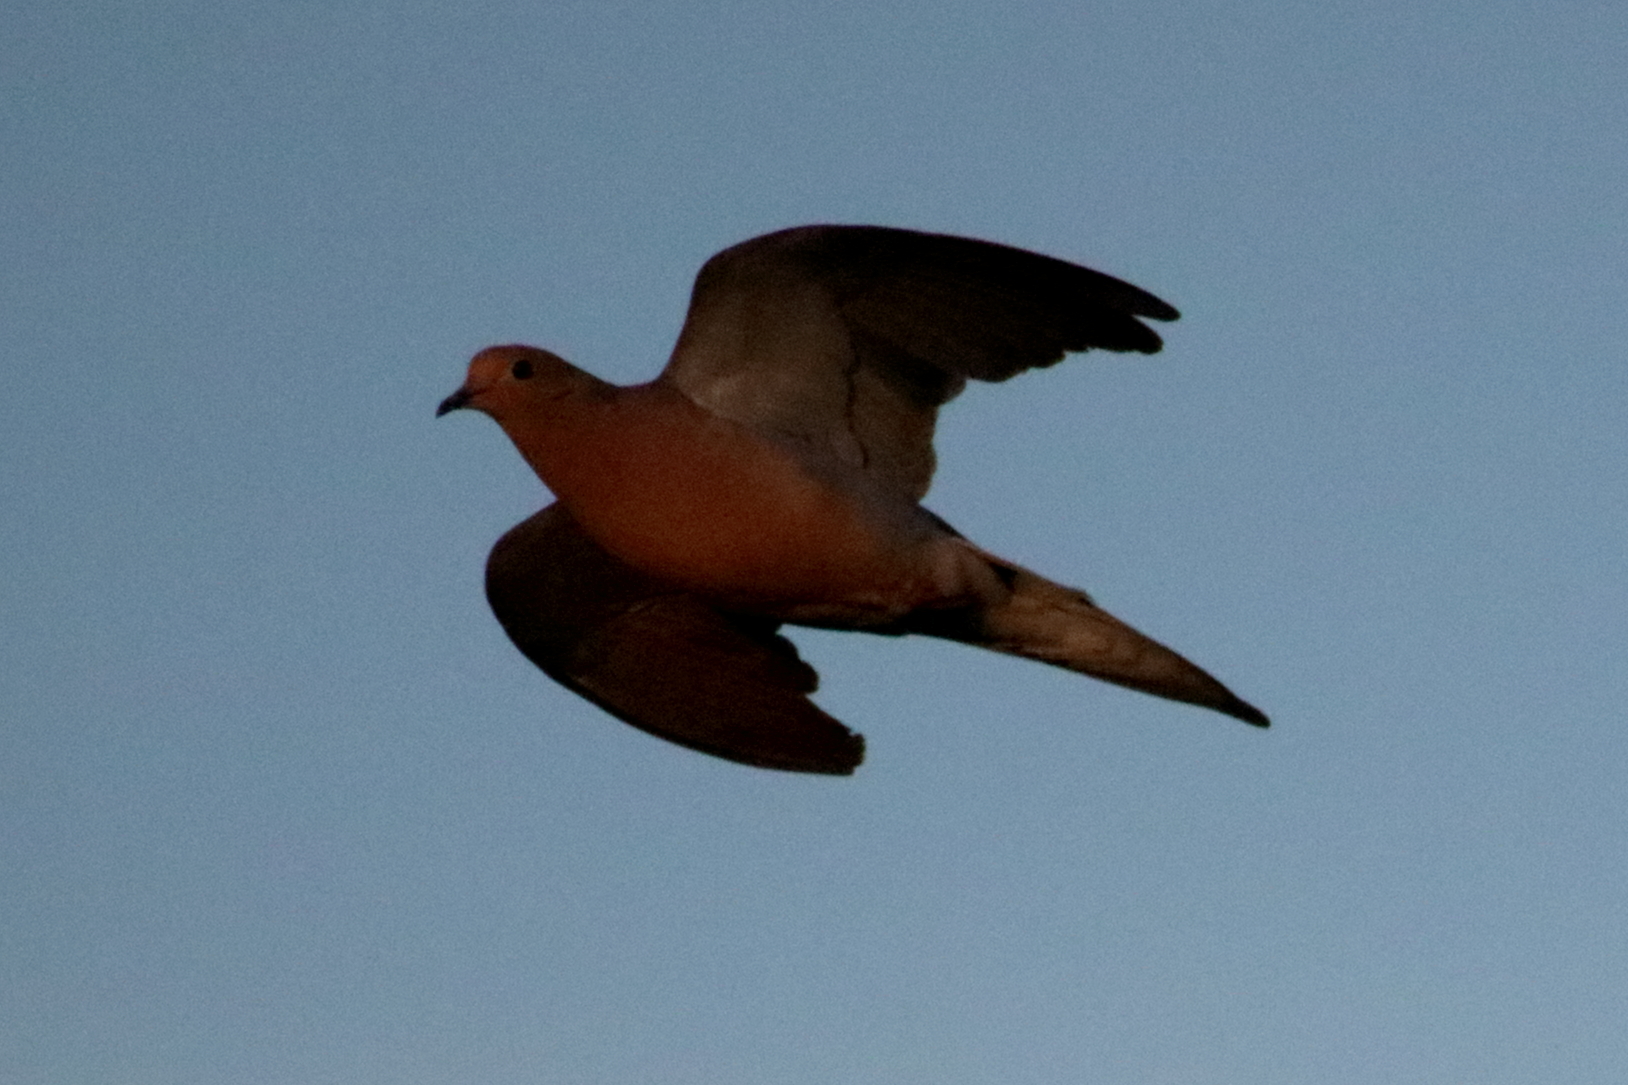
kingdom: Animalia
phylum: Chordata
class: Aves
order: Columbiformes
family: Columbidae
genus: Zenaida
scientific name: Zenaida macroura
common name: Mourning dove
